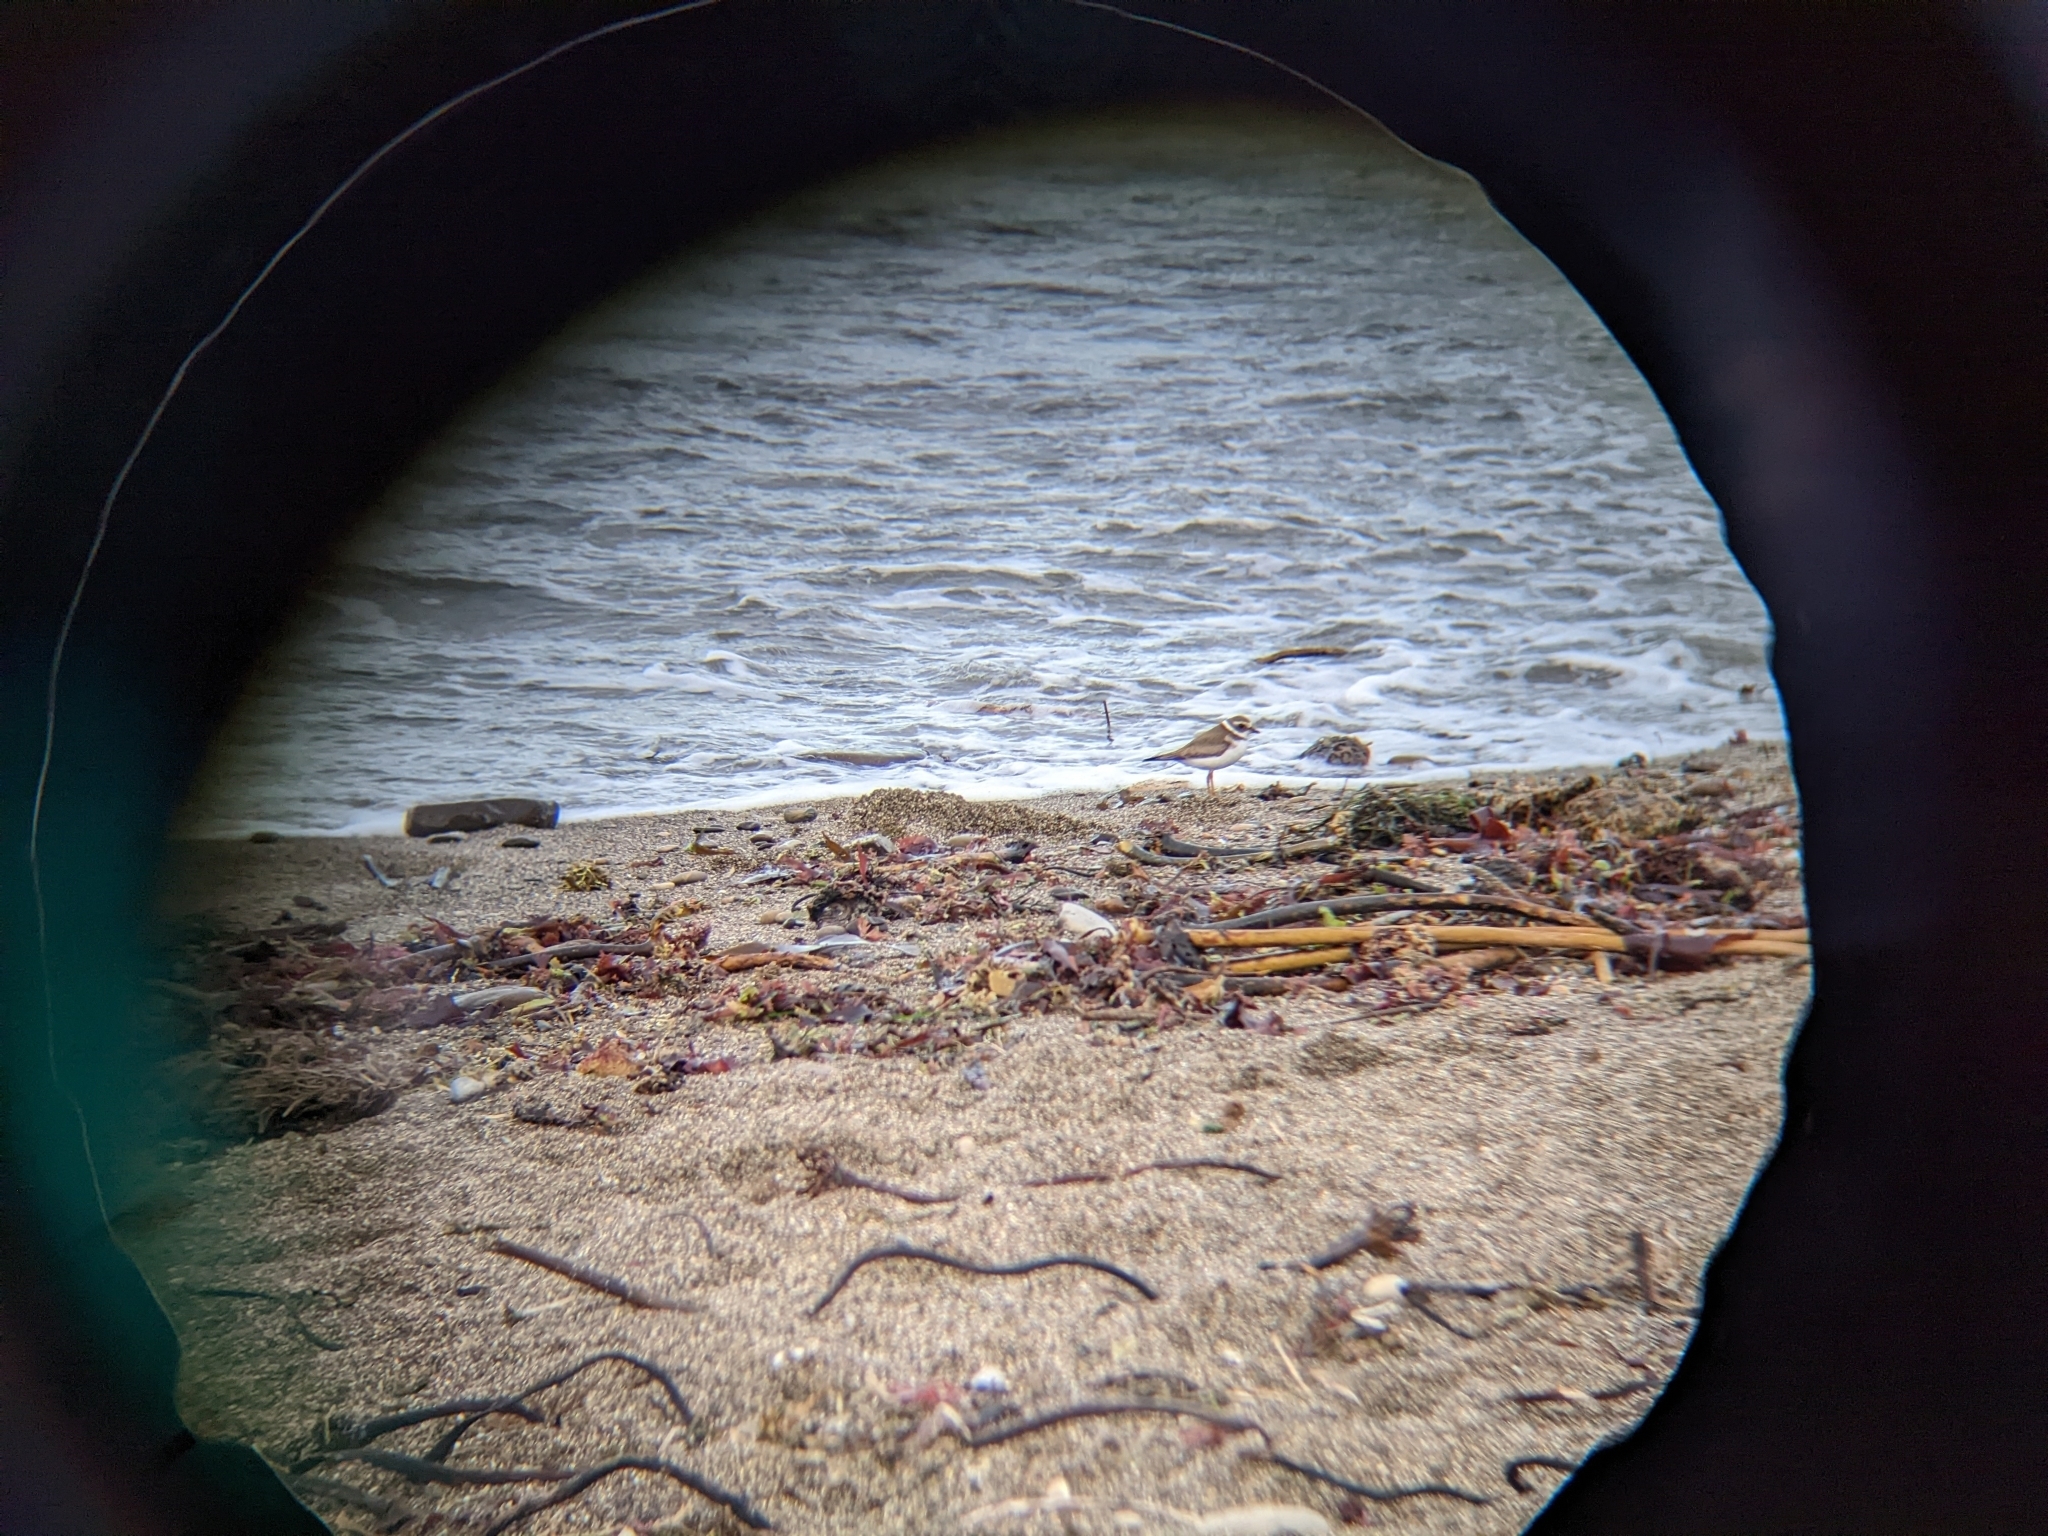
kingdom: Animalia
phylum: Chordata
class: Aves
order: Charadriiformes
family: Charadriidae
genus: Charadrius
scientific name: Charadrius semipalmatus
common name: Semipalmated plover
